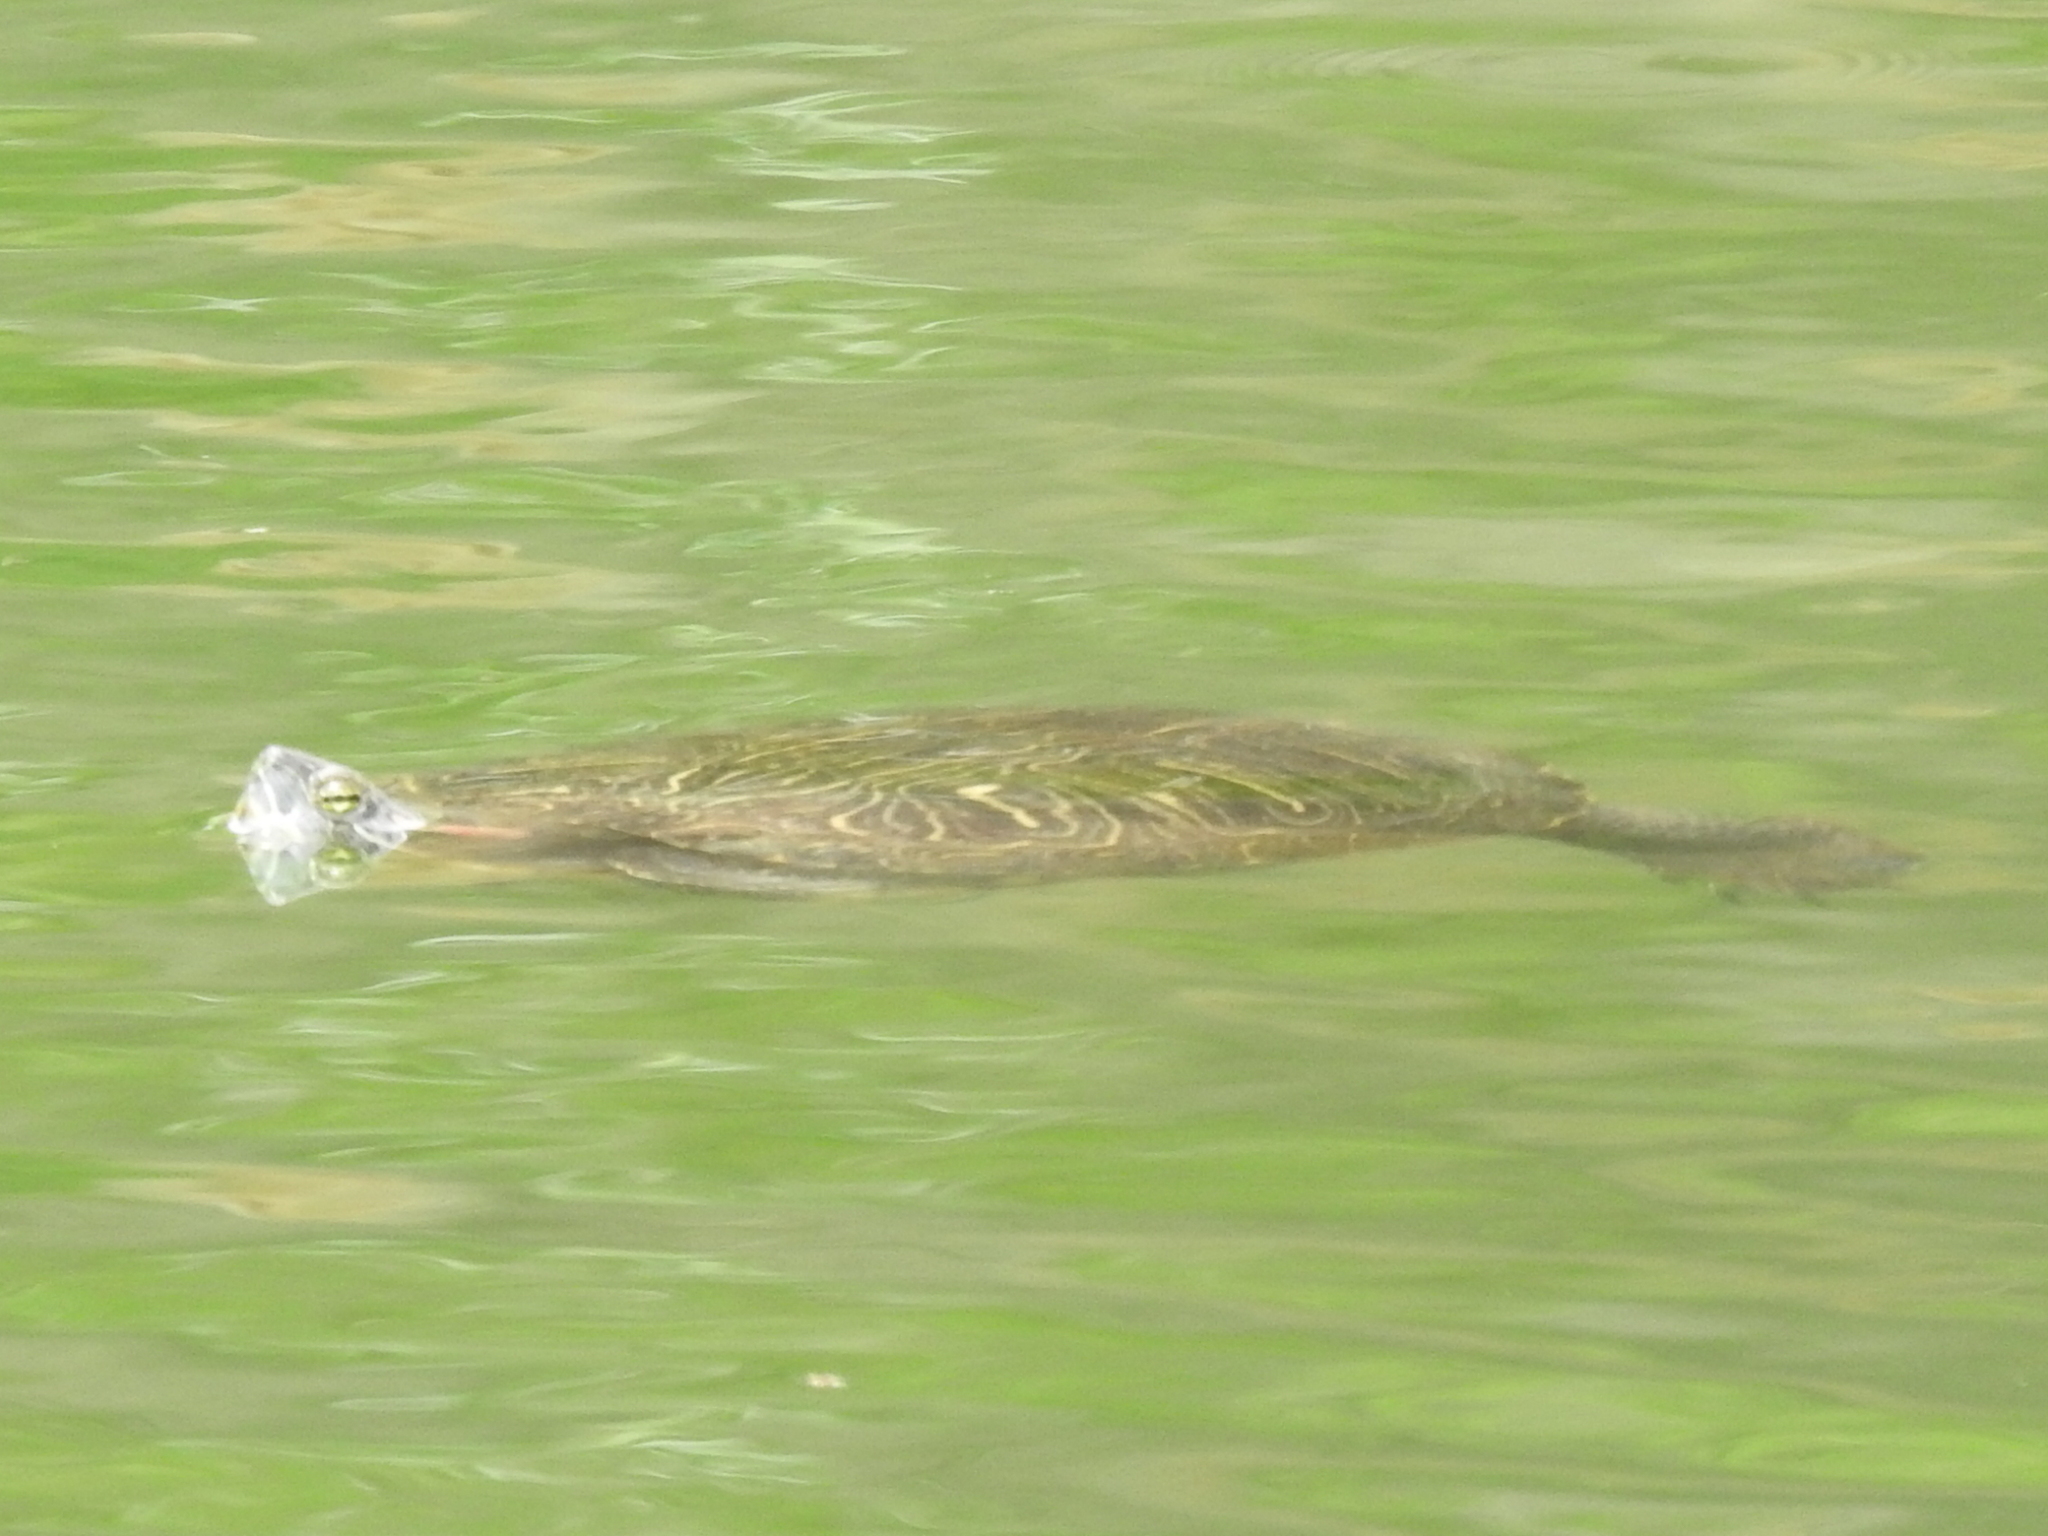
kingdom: Animalia
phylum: Chordata
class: Testudines
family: Emydidae
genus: Trachemys
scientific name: Trachemys scripta
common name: Slider
